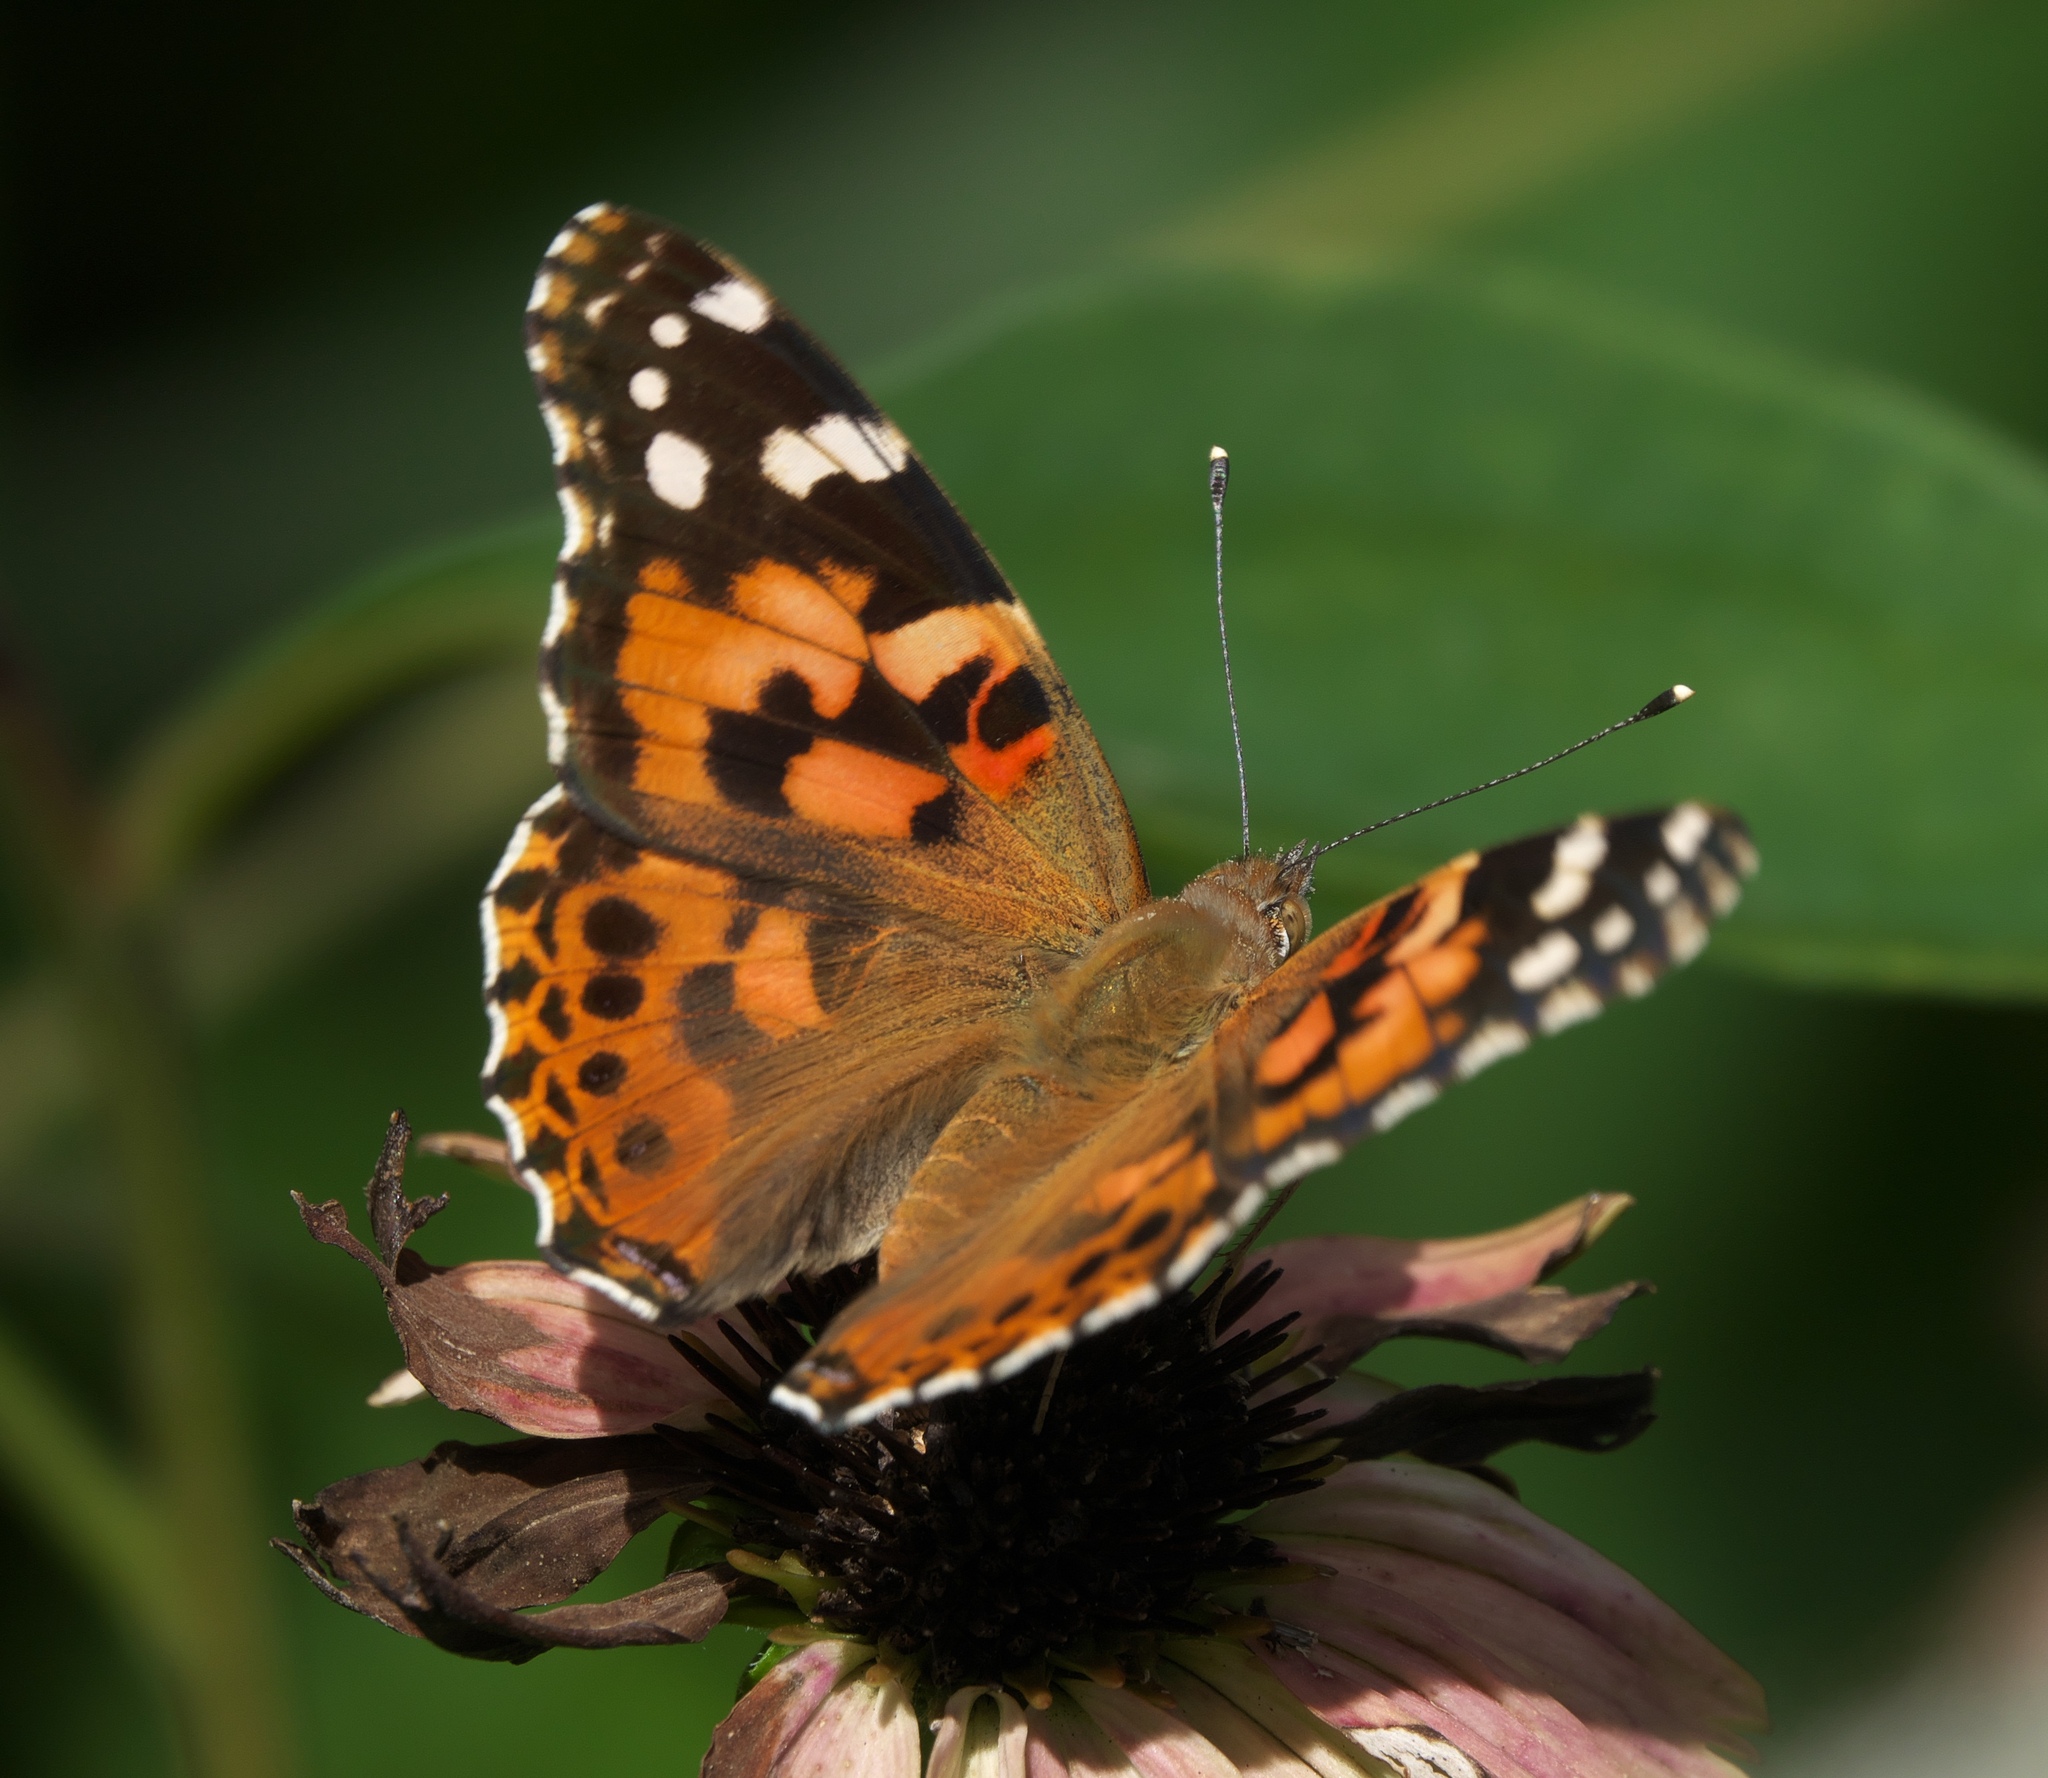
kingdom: Animalia
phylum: Arthropoda
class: Insecta
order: Lepidoptera
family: Nymphalidae
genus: Vanessa
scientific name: Vanessa cardui
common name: Painted lady
